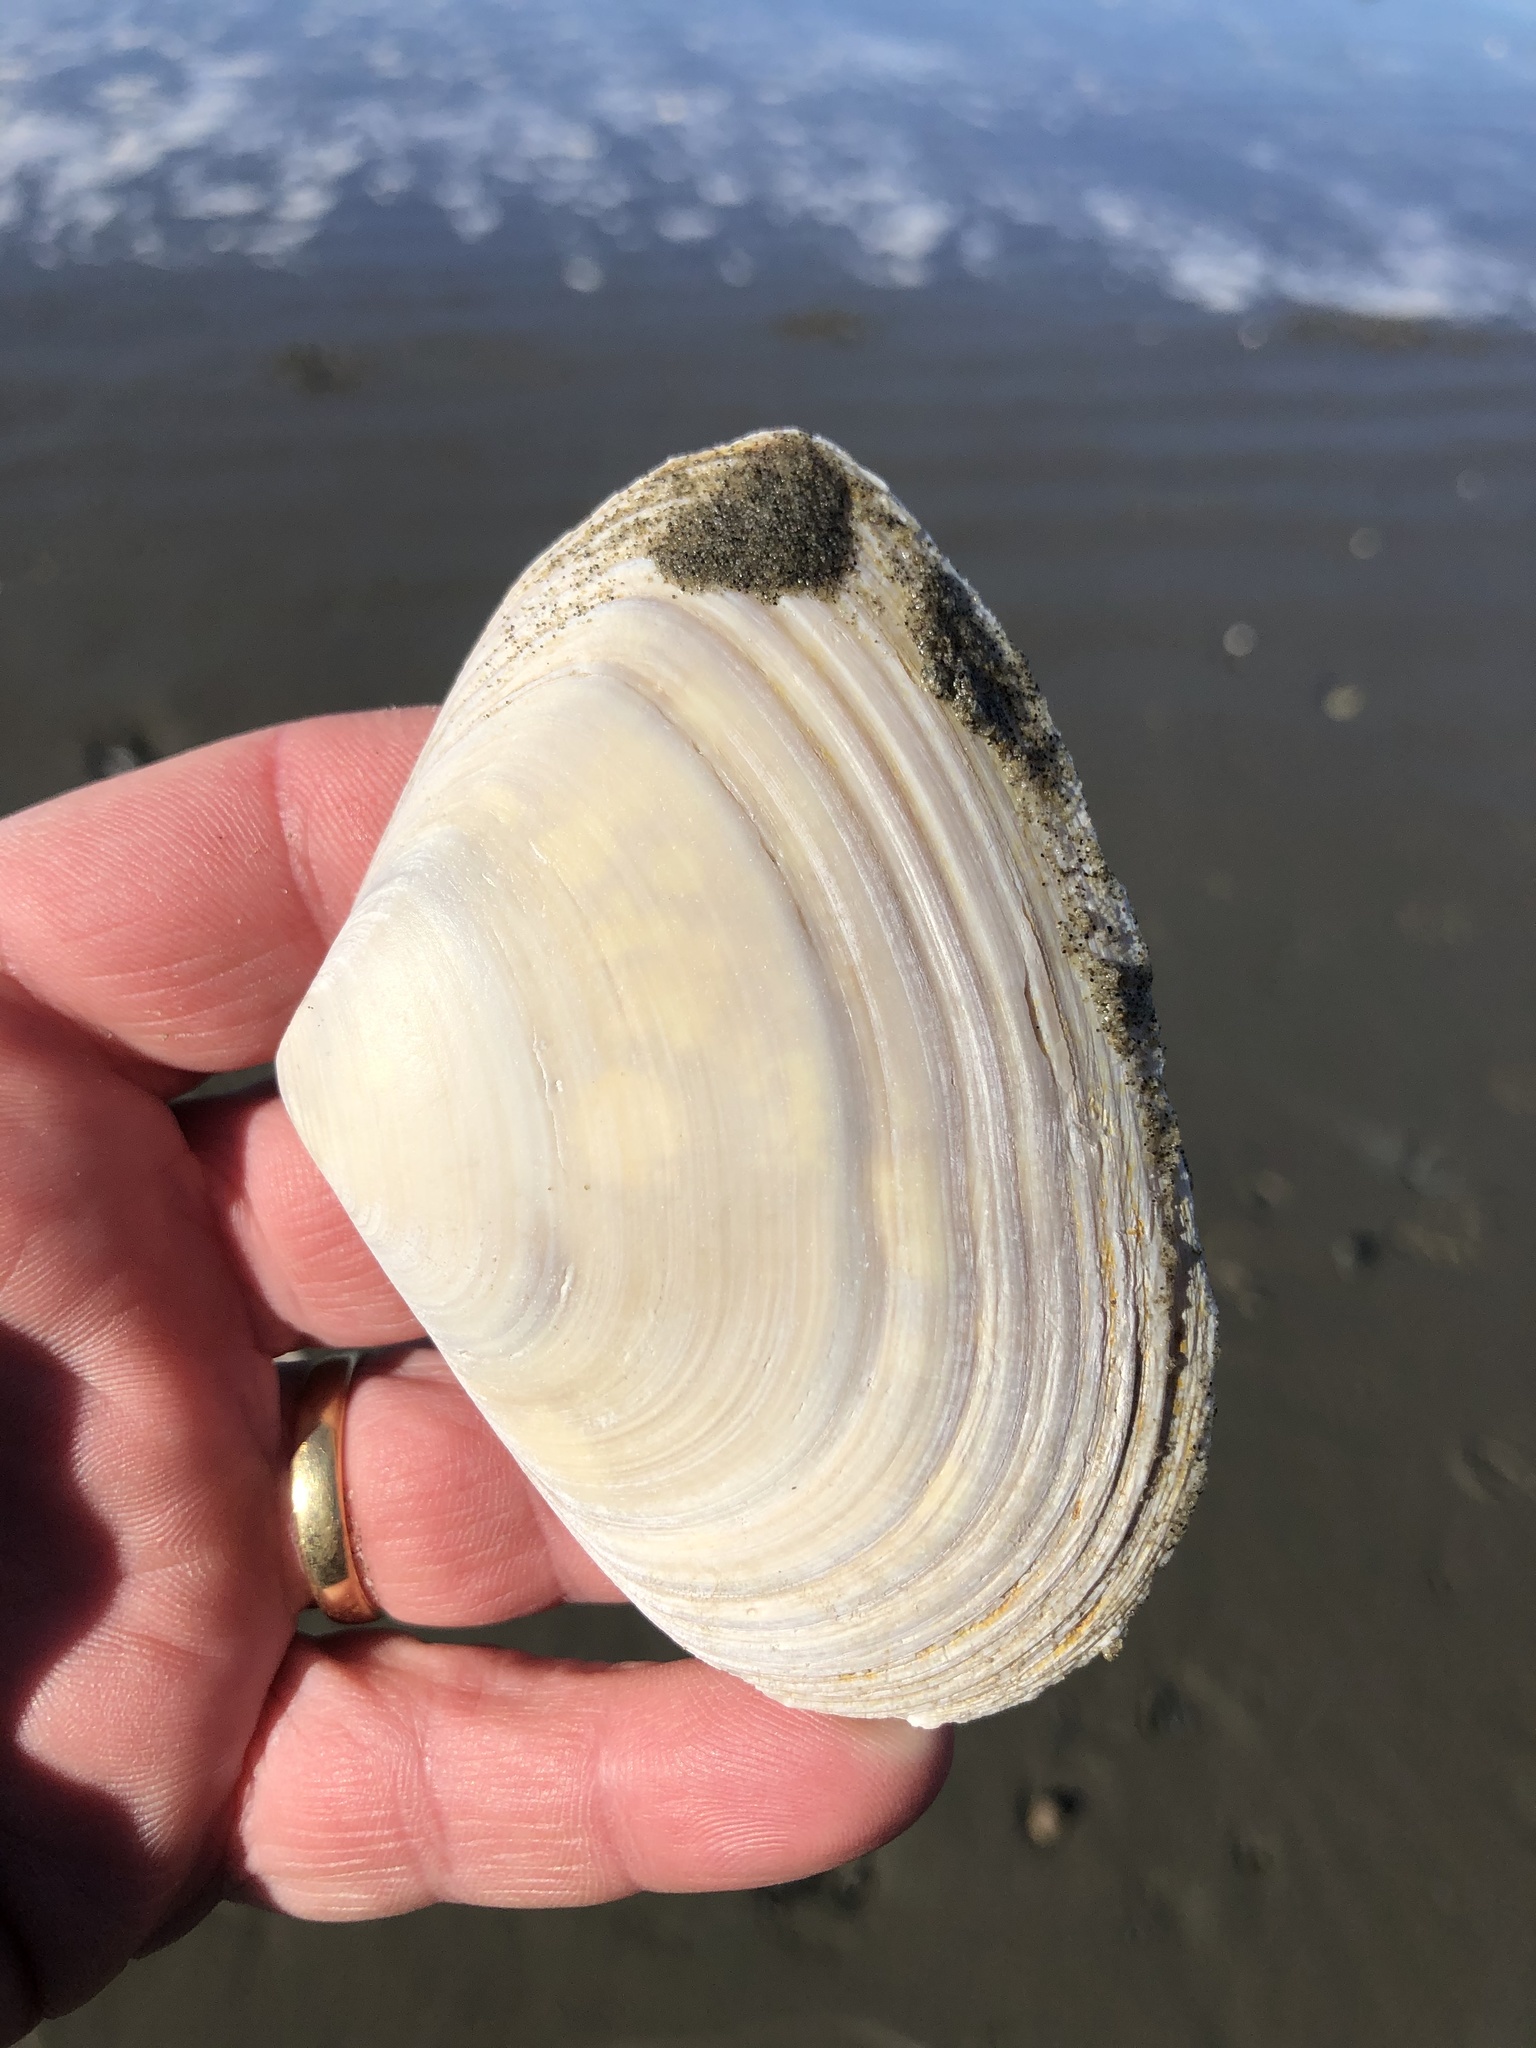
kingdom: Animalia
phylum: Mollusca
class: Bivalvia
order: Venerida
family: Mesodesmatidae
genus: Paphies
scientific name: Paphies donacina
